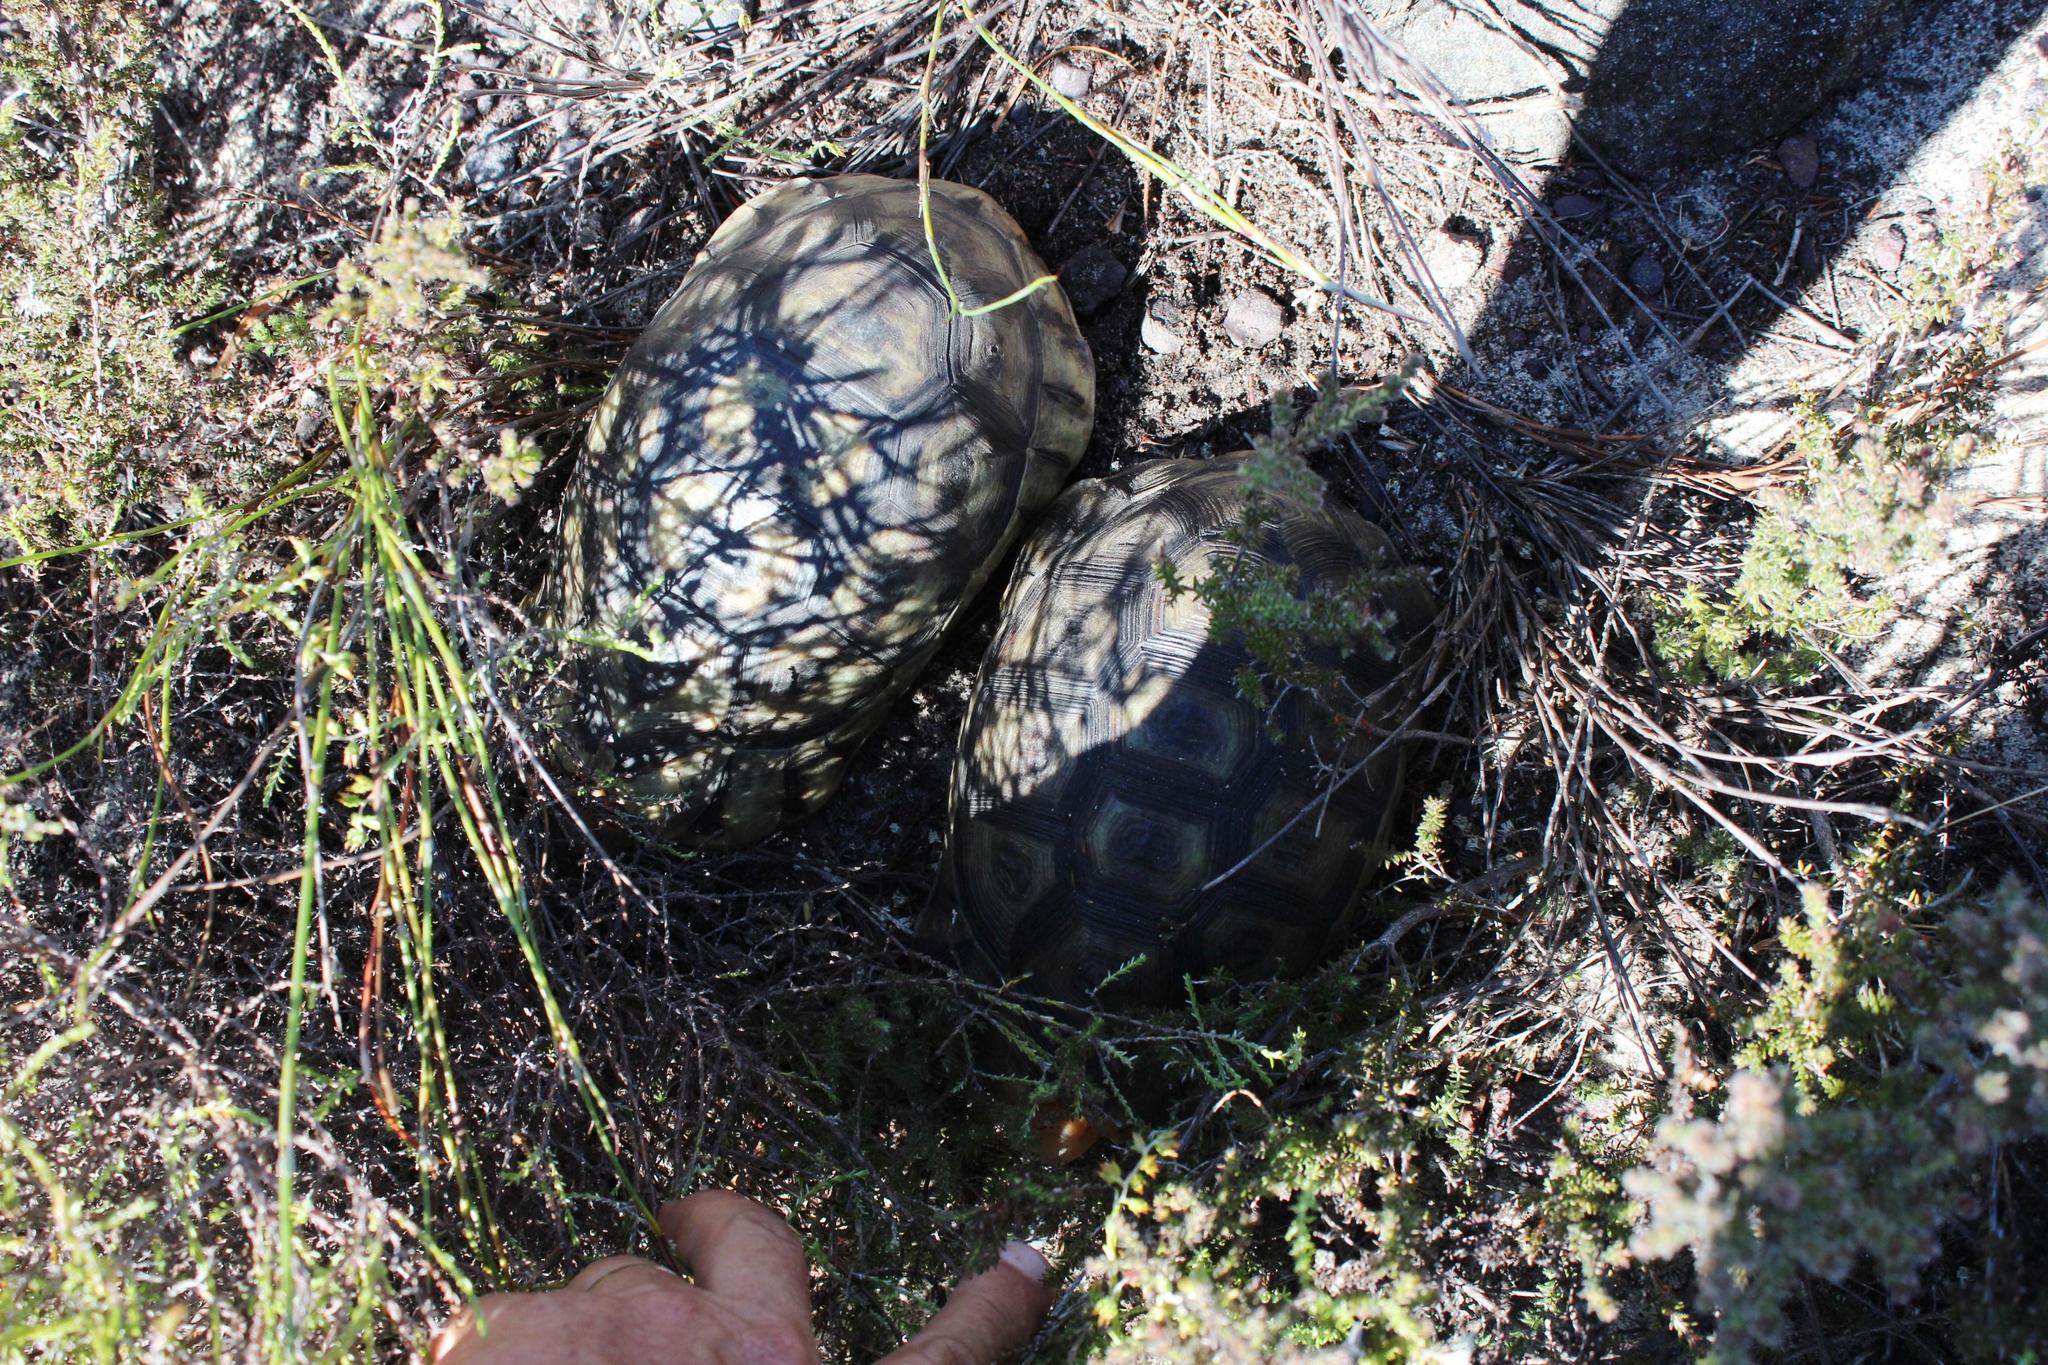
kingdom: Animalia
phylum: Chordata
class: Testudines
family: Testudinidae
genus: Chersina
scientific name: Chersina angulata
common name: South african bowsprit tortoise
